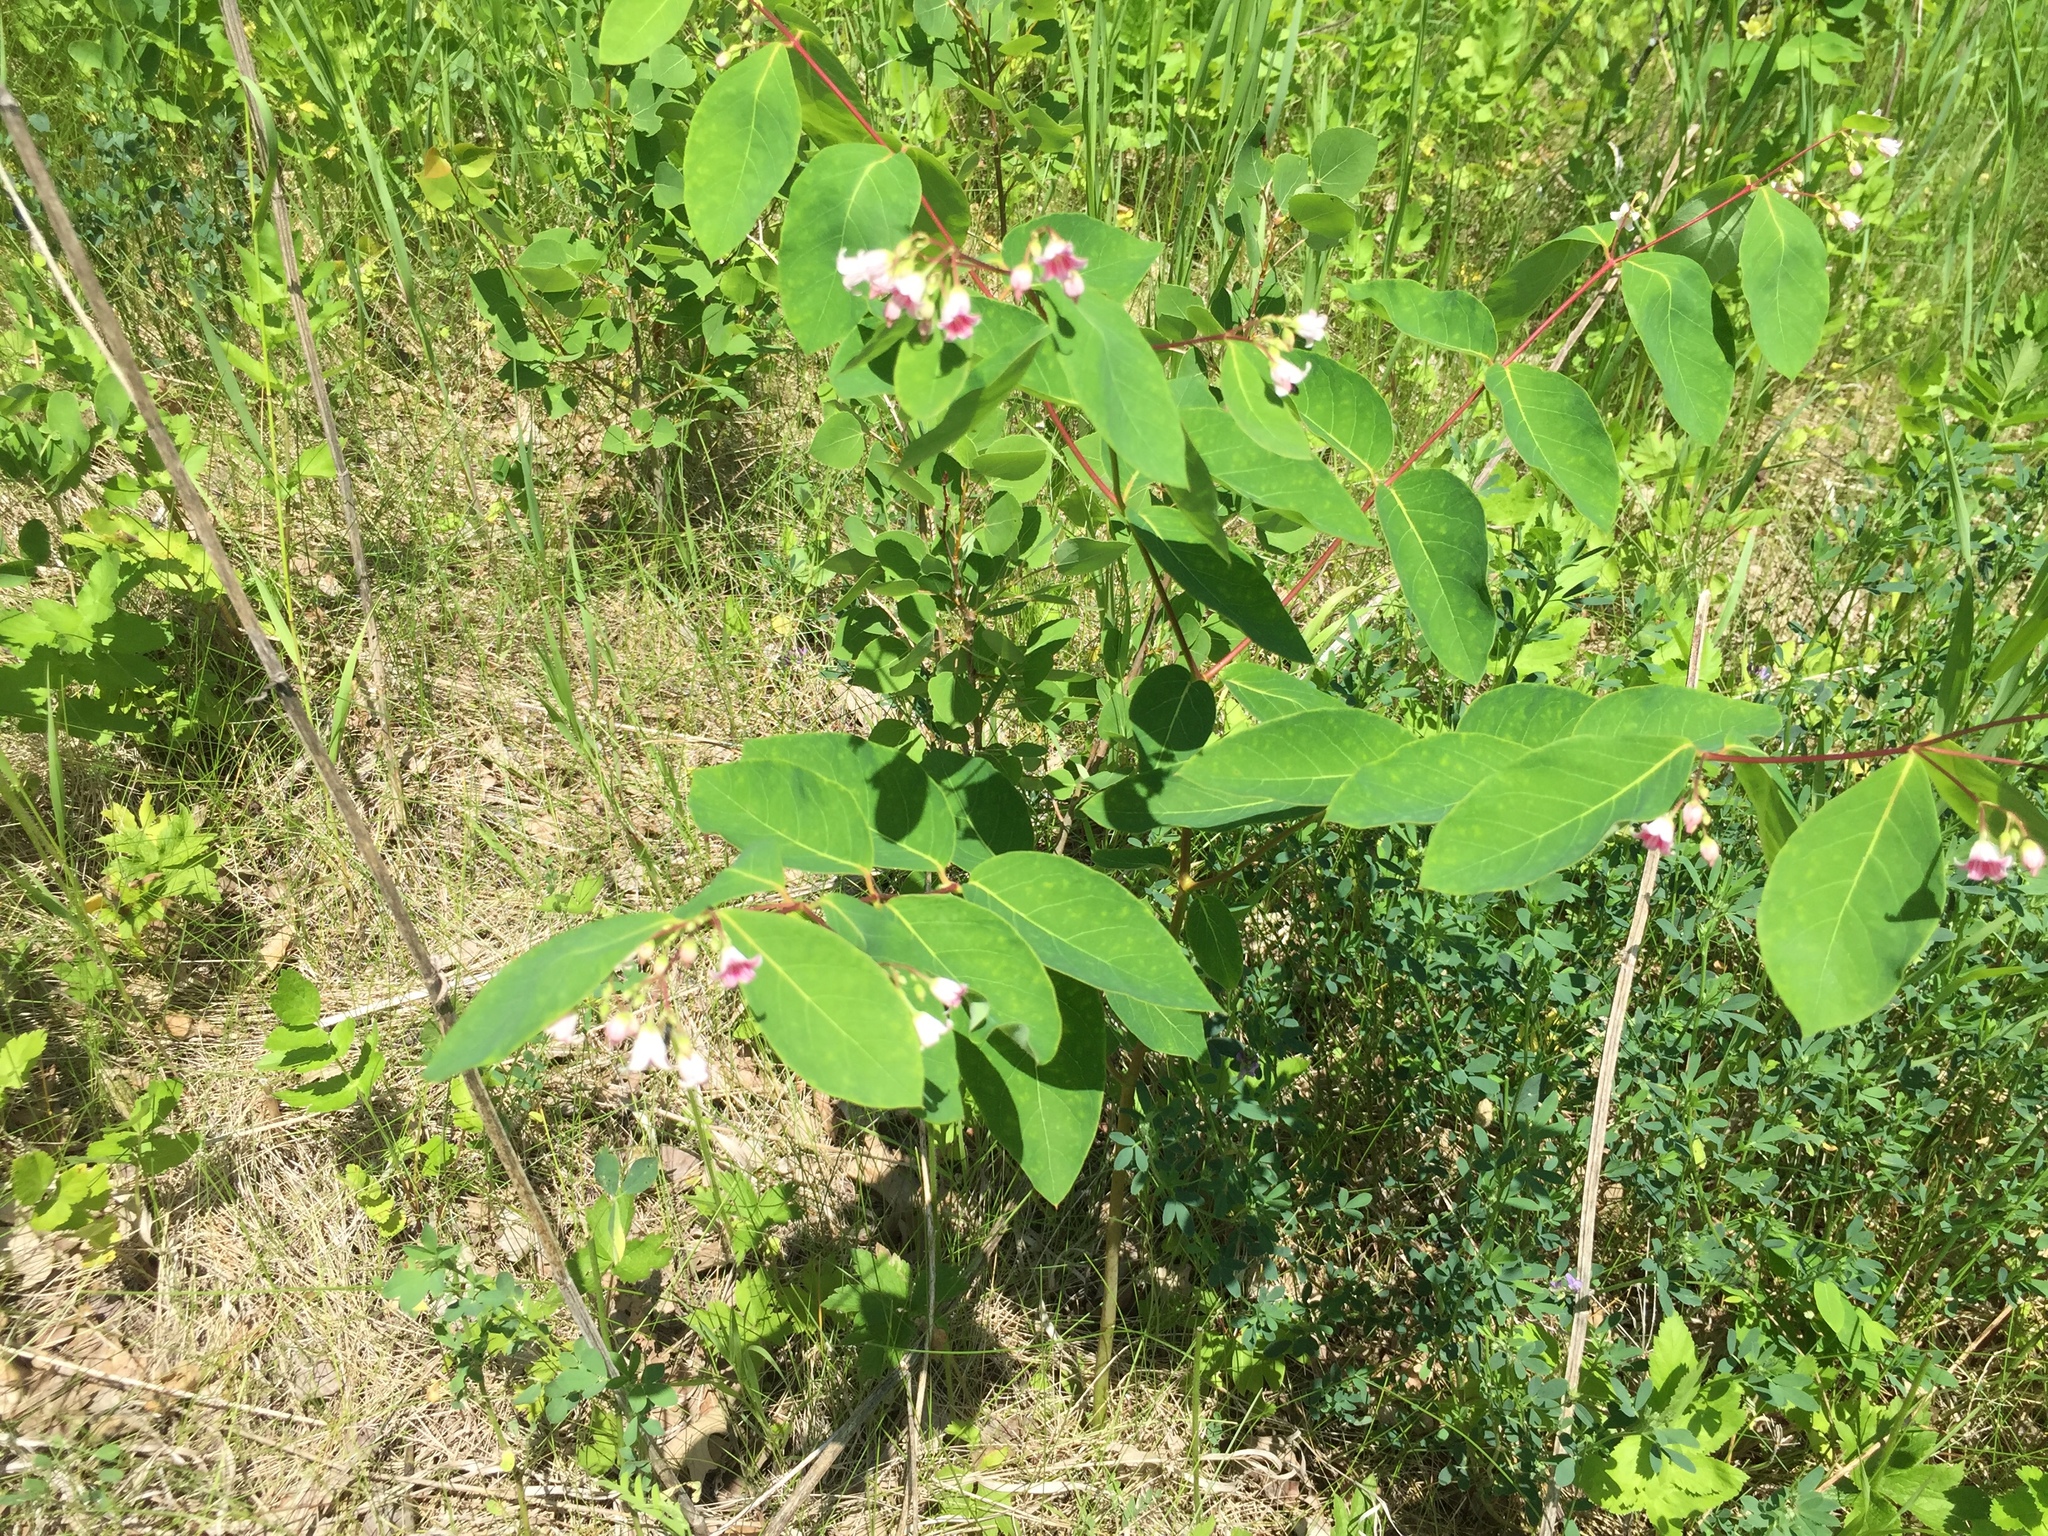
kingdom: Plantae
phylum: Tracheophyta
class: Magnoliopsida
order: Gentianales
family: Apocynaceae
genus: Apocynum
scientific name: Apocynum androsaemifolium
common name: Spreading dogbane
